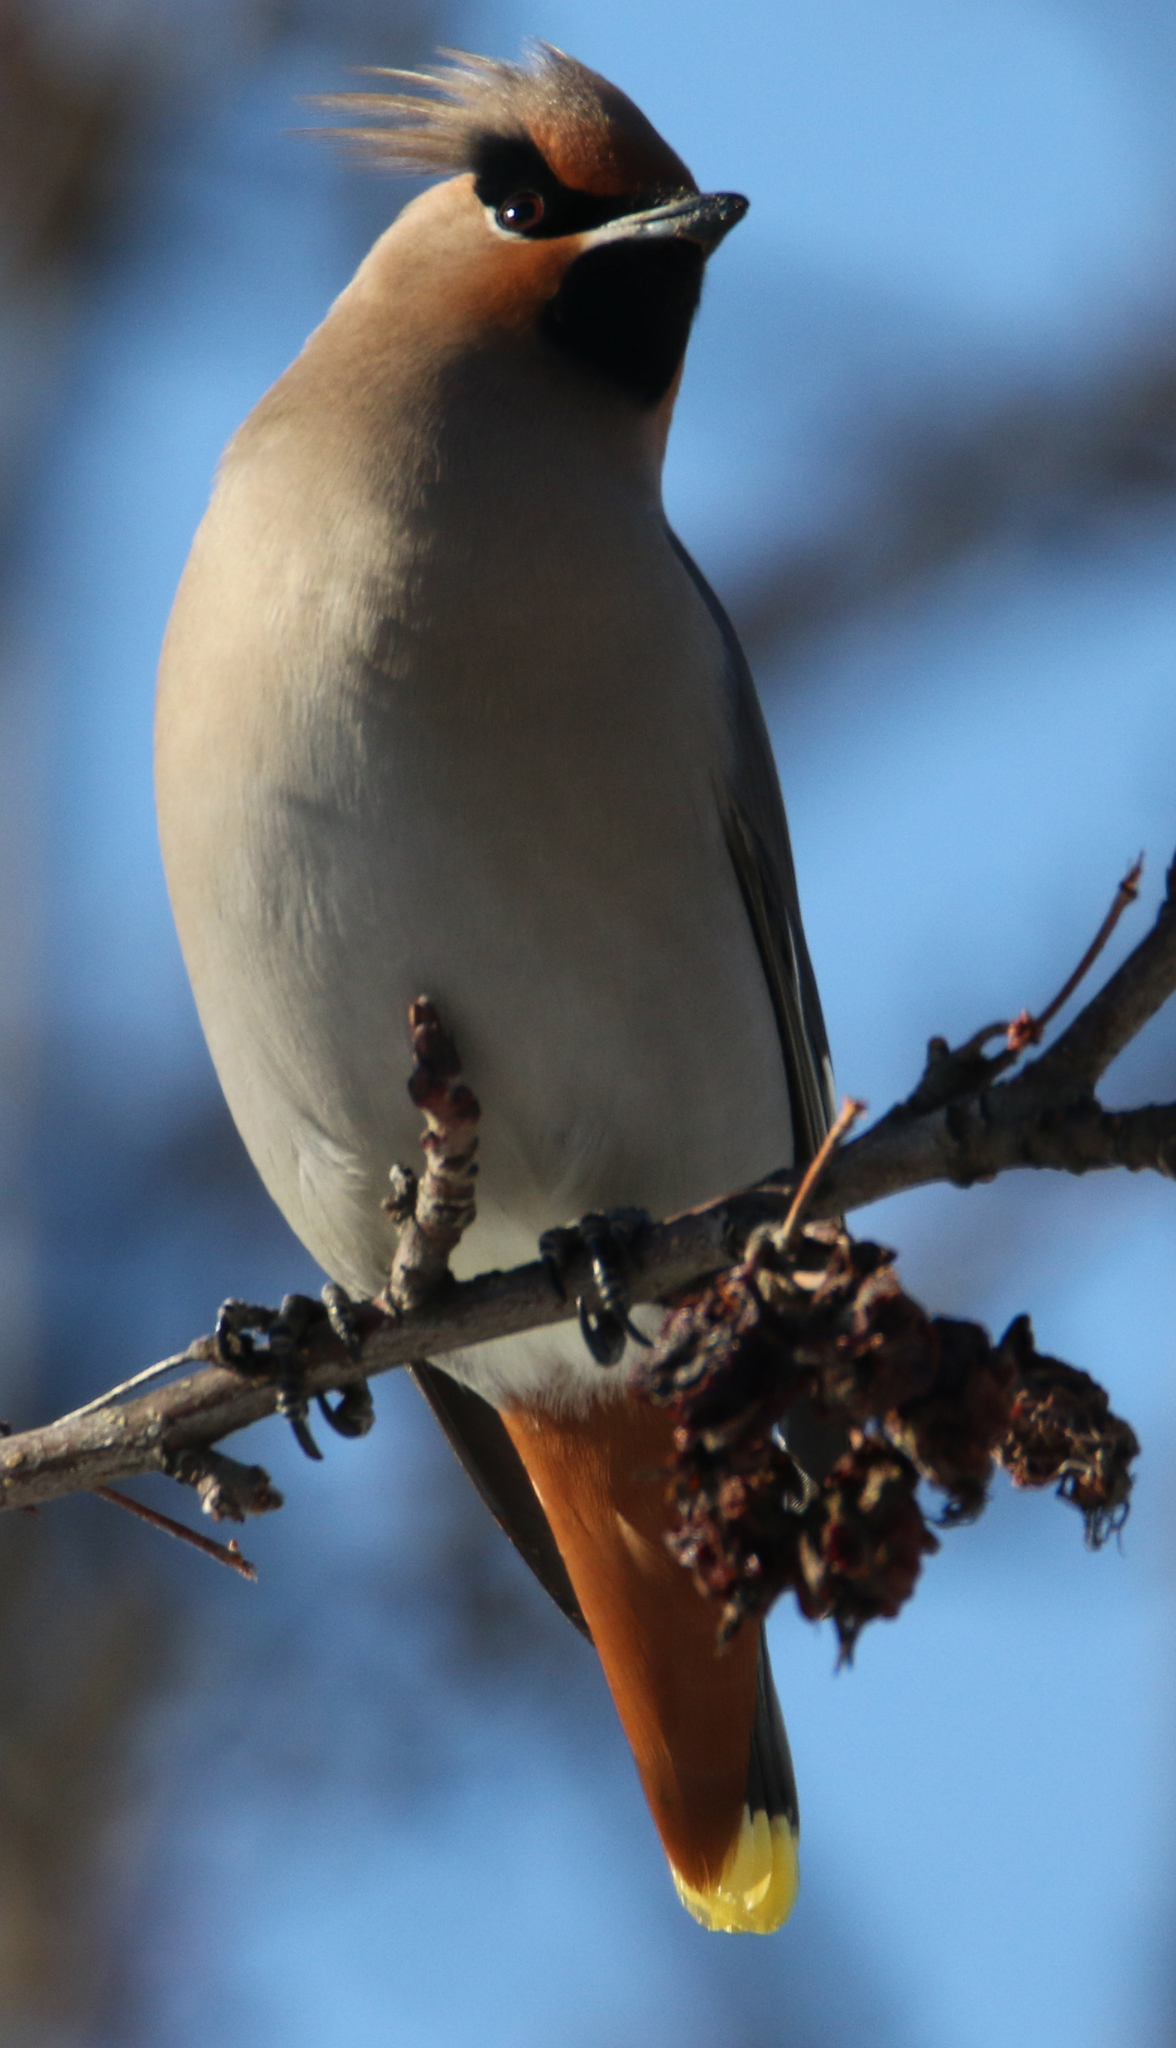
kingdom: Animalia
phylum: Chordata
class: Aves
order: Passeriformes
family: Bombycillidae
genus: Bombycilla
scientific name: Bombycilla garrulus
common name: Bohemian waxwing
